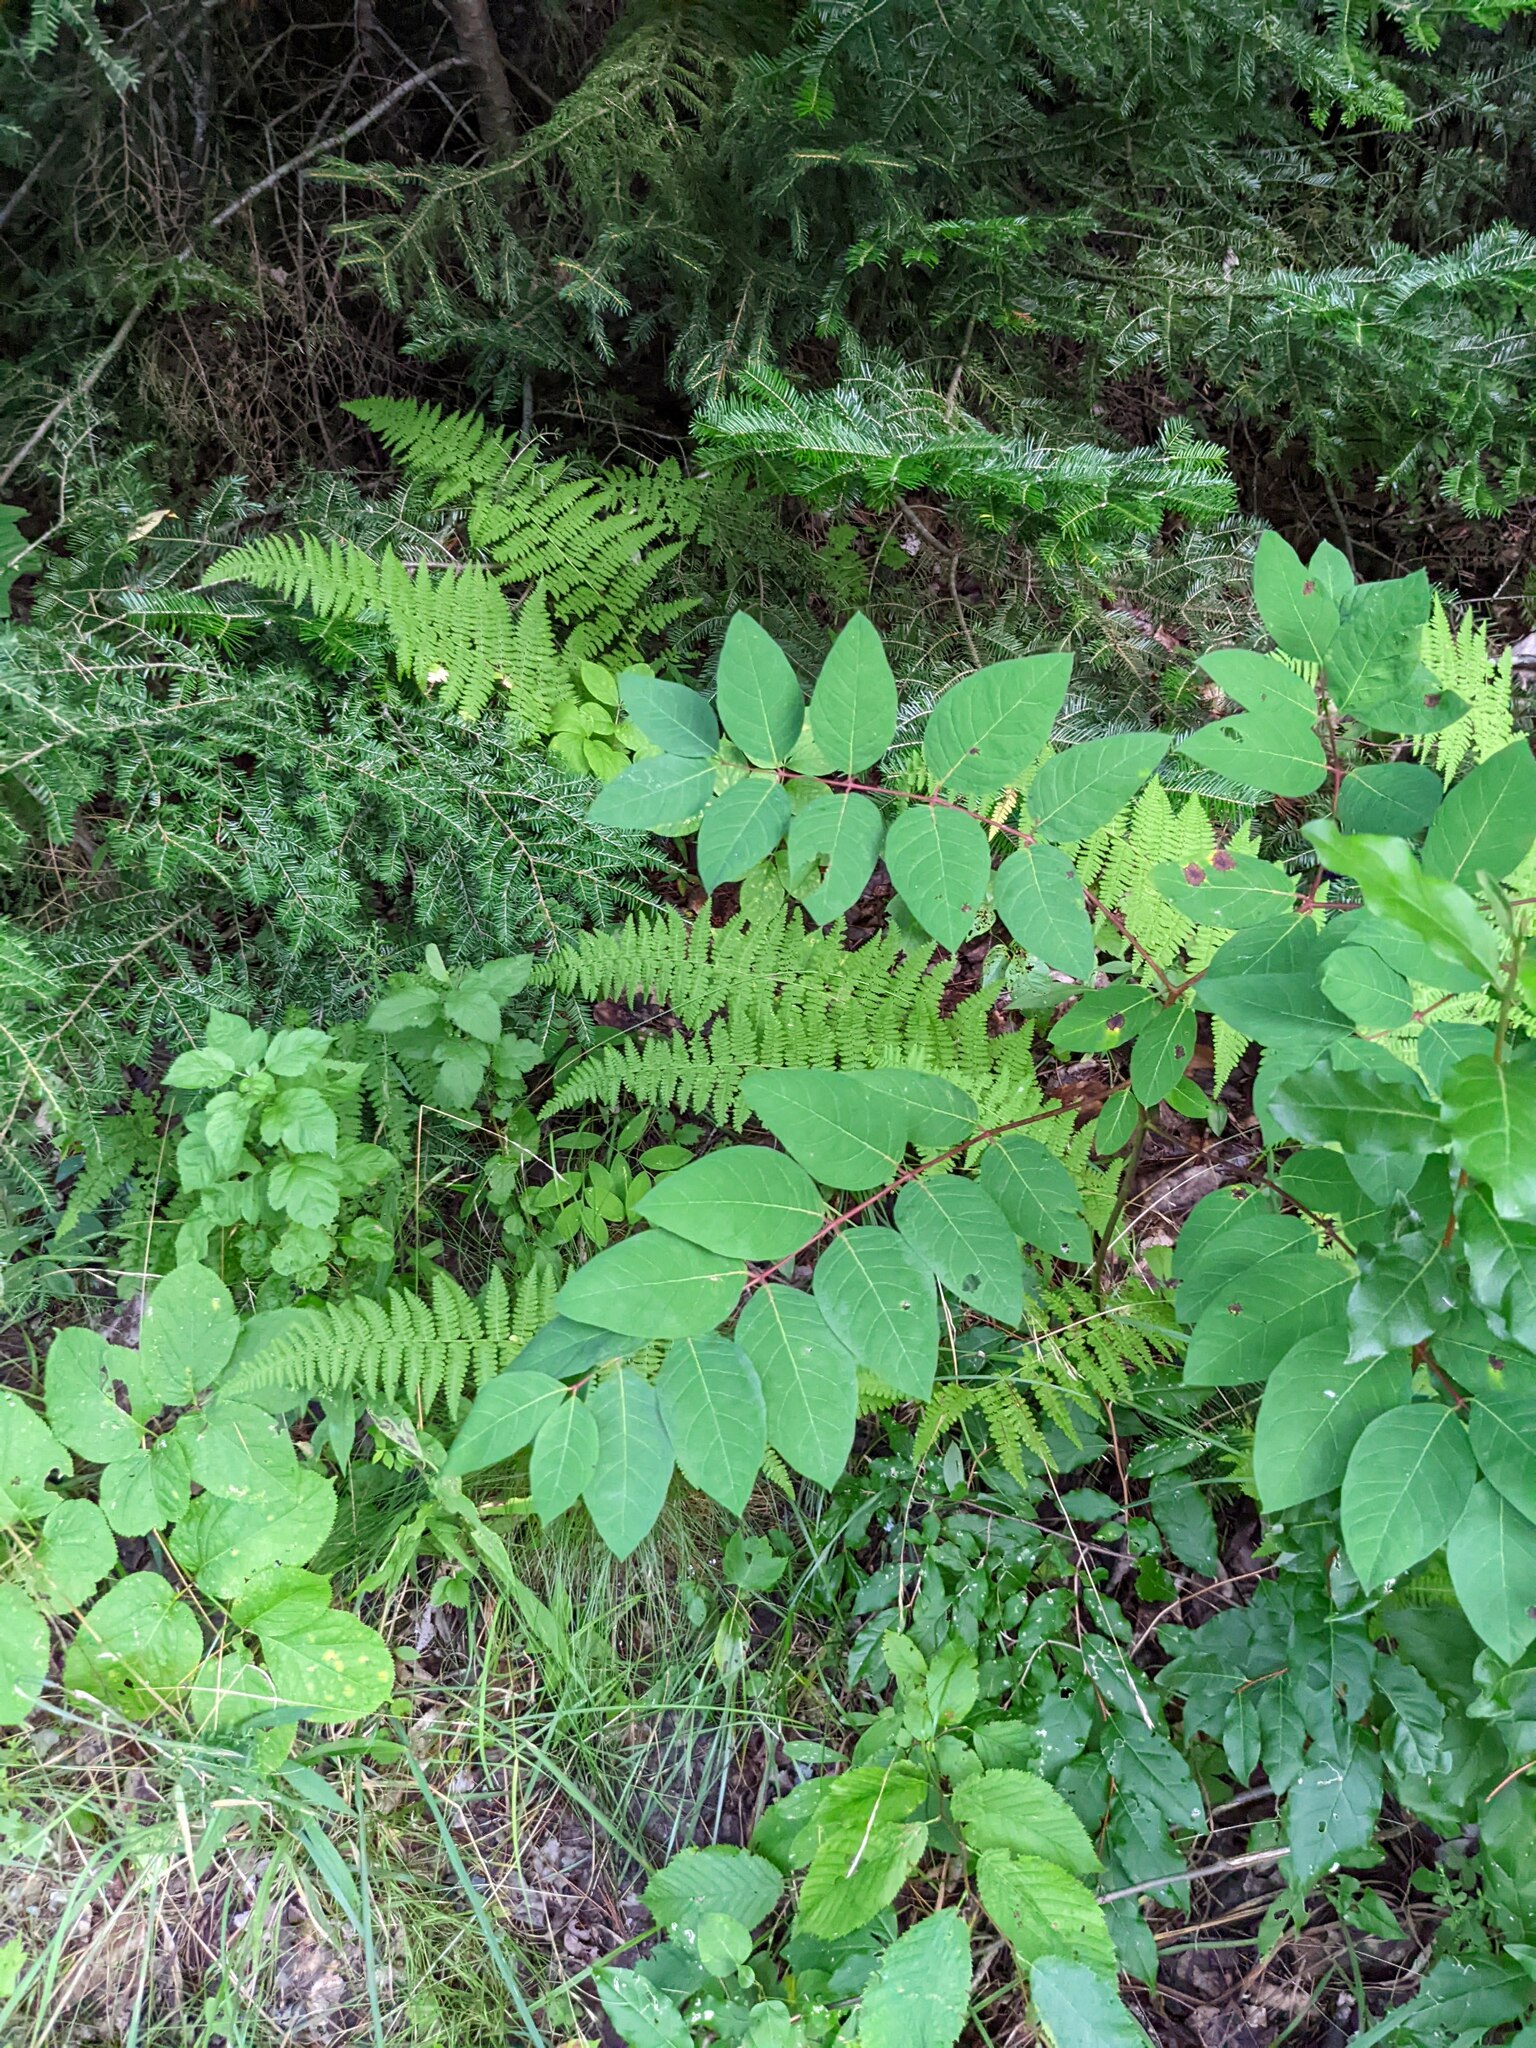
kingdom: Plantae
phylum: Tracheophyta
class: Magnoliopsida
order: Gentianales
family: Apocynaceae
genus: Apocynum
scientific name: Apocynum androsaemifolium
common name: Spreading dogbane
